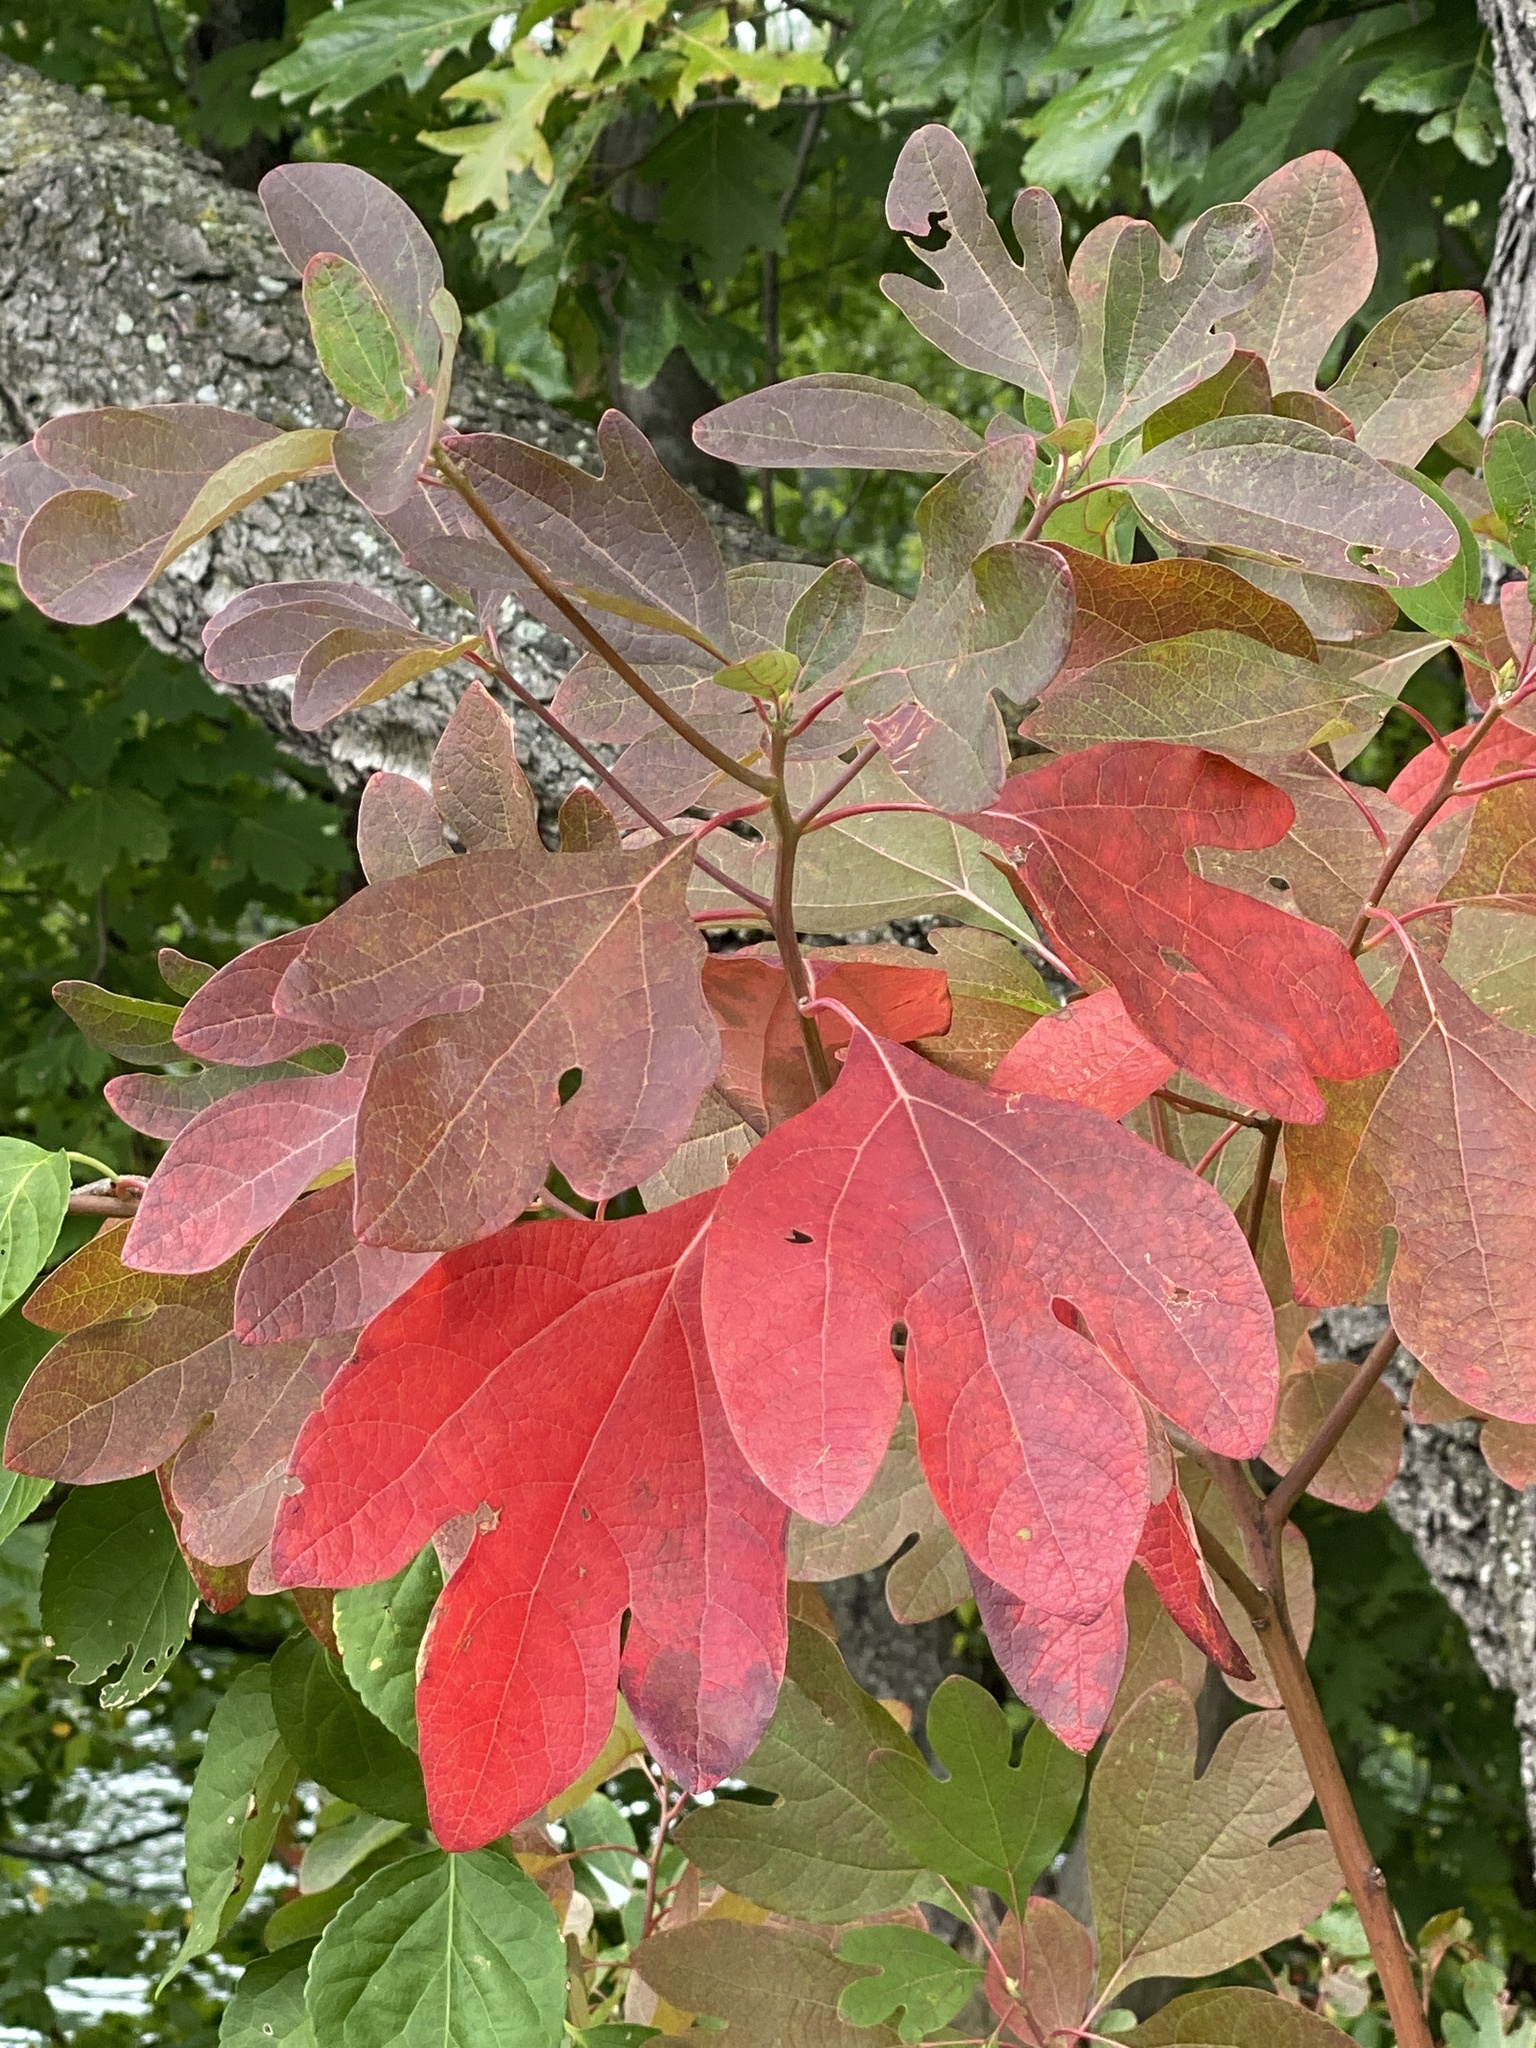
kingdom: Plantae
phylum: Tracheophyta
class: Magnoliopsida
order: Laurales
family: Lauraceae
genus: Sassafras
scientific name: Sassafras albidum
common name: Sassafras
